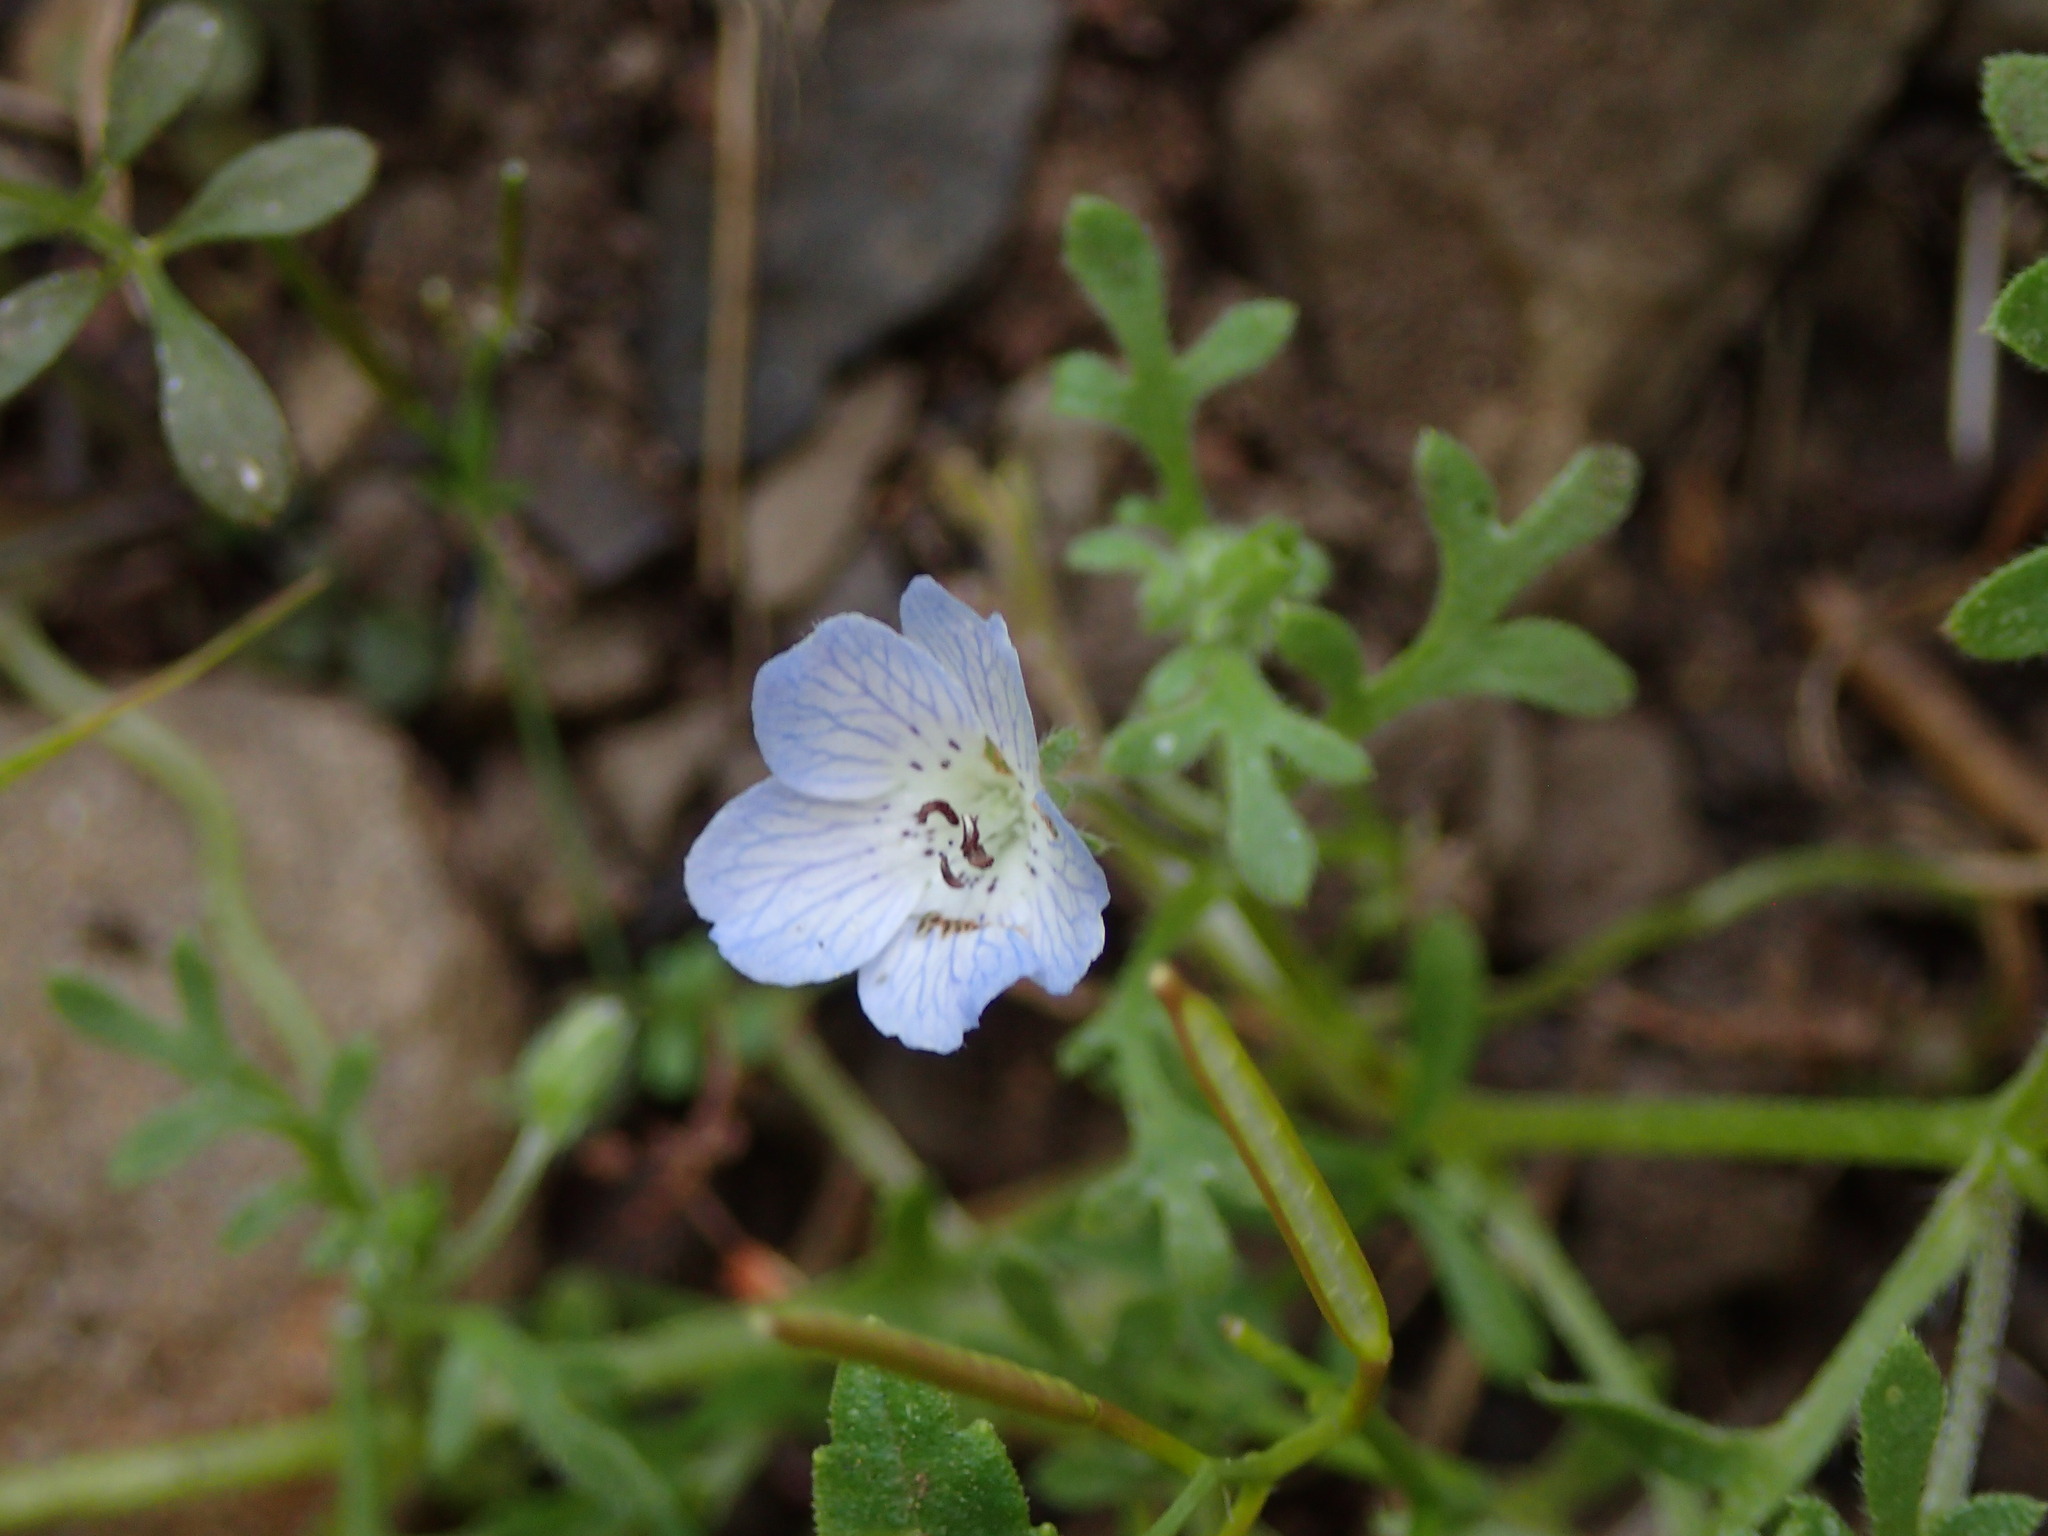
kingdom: Plantae
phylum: Tracheophyta
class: Magnoliopsida
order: Boraginales
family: Hydrophyllaceae
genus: Nemophila
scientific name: Nemophila menziesii
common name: Baby's-blue-eyes
